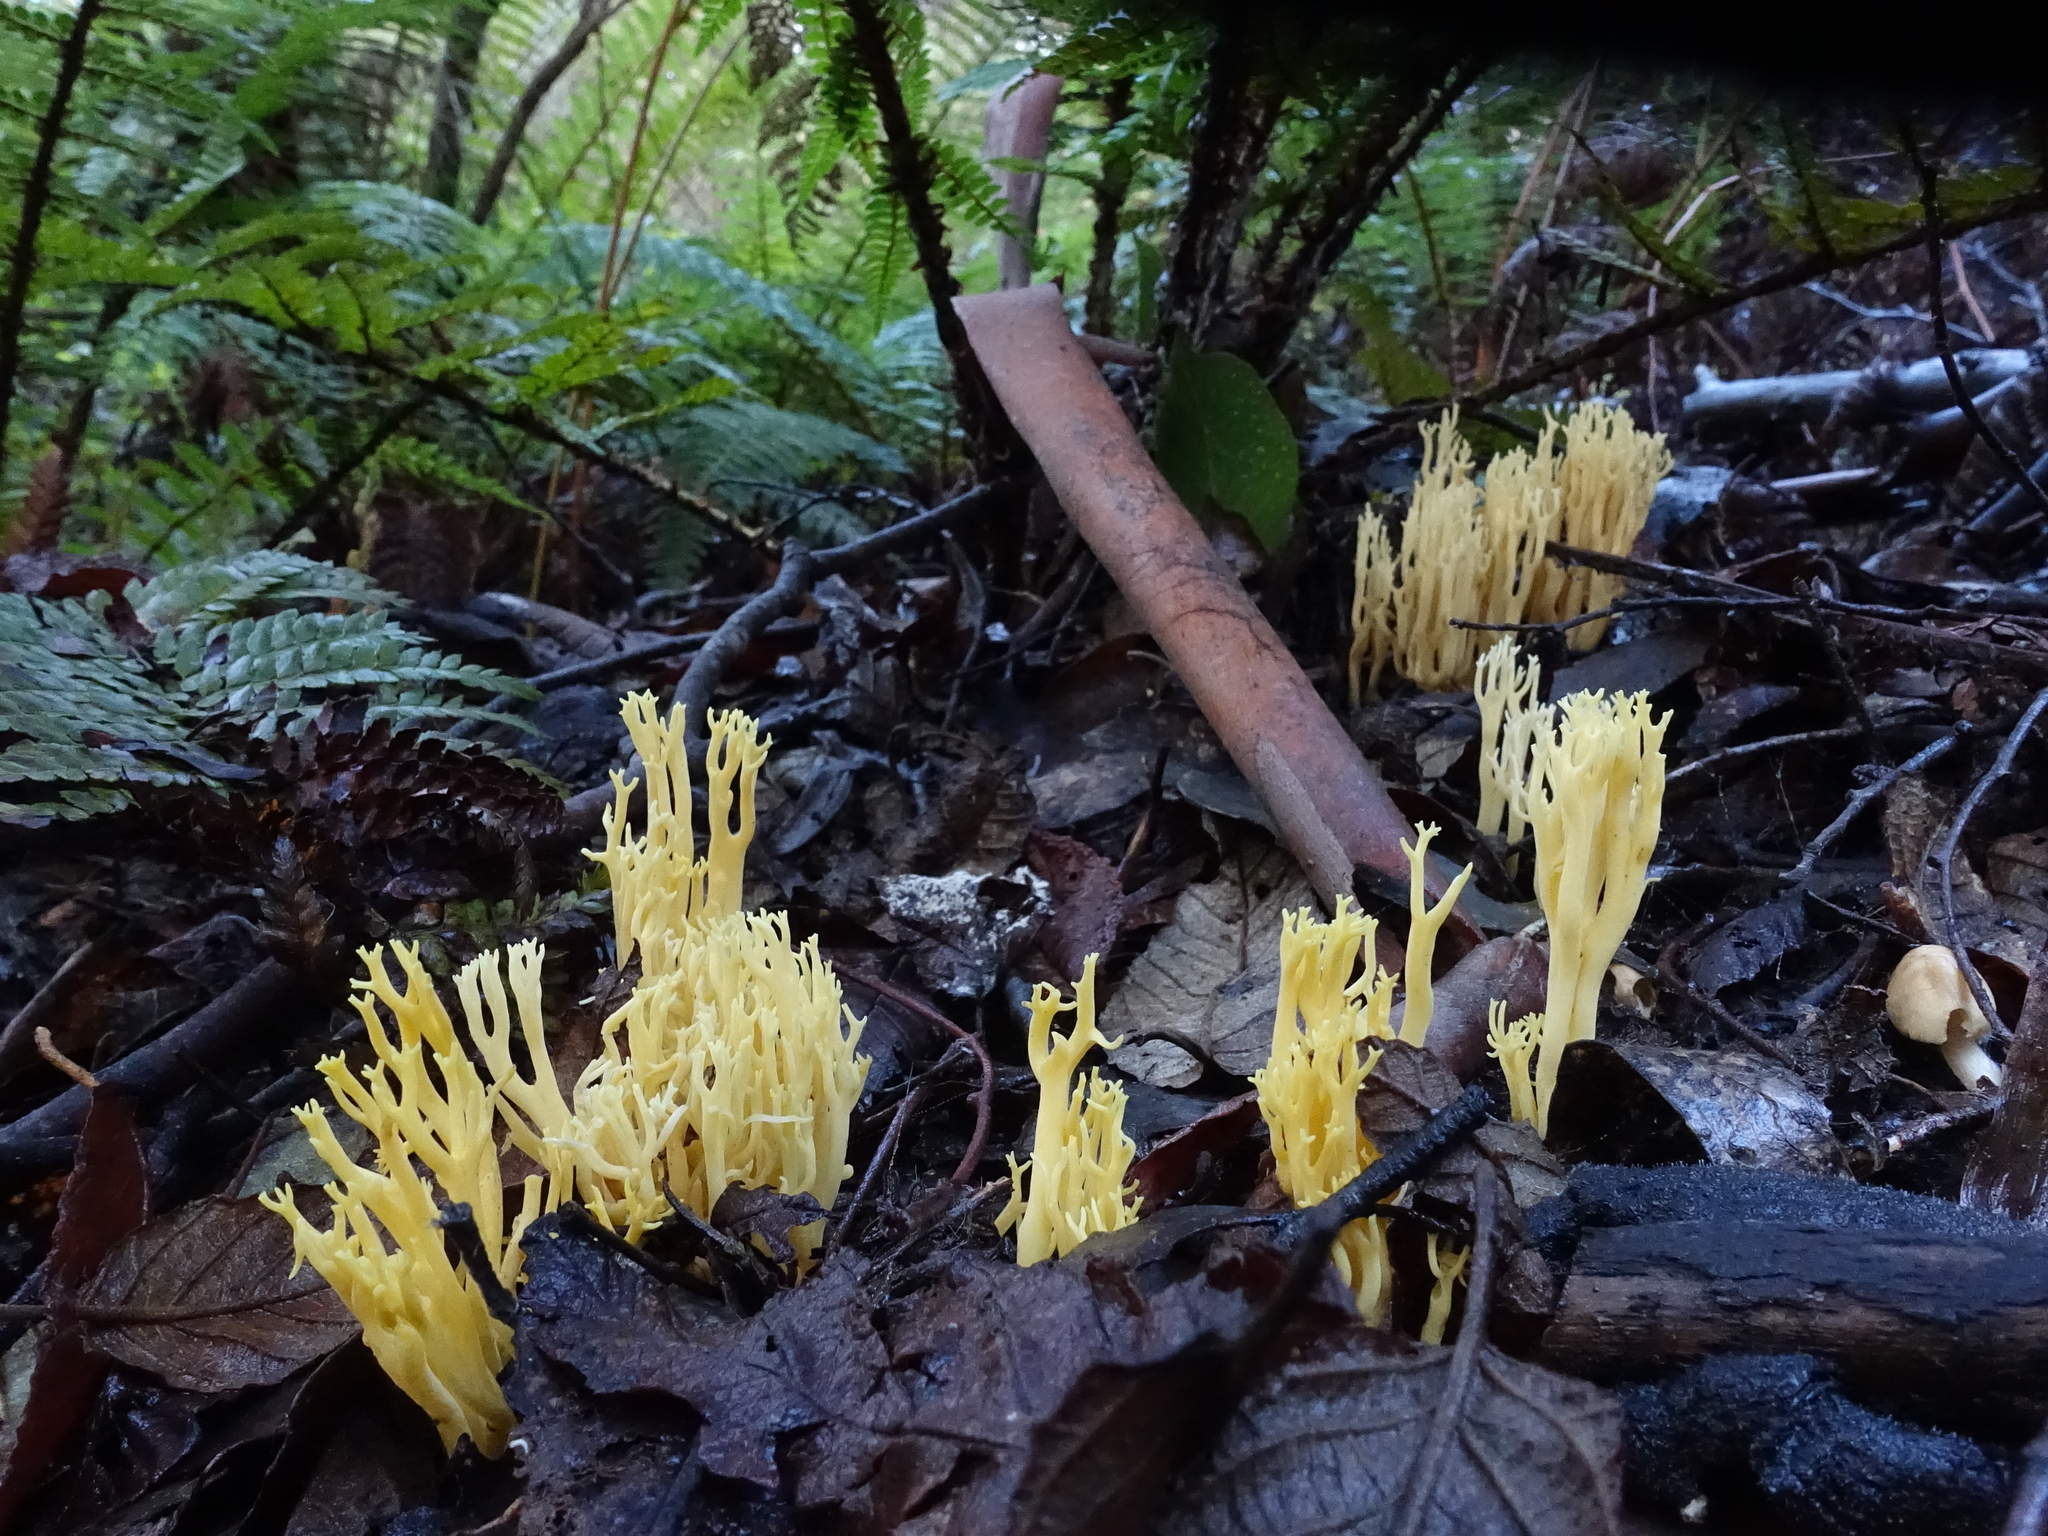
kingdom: Fungi
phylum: Basidiomycota
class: Agaricomycetes
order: Gomphales
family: Gomphaceae
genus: Ramaria
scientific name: Ramaria lorithamnus
